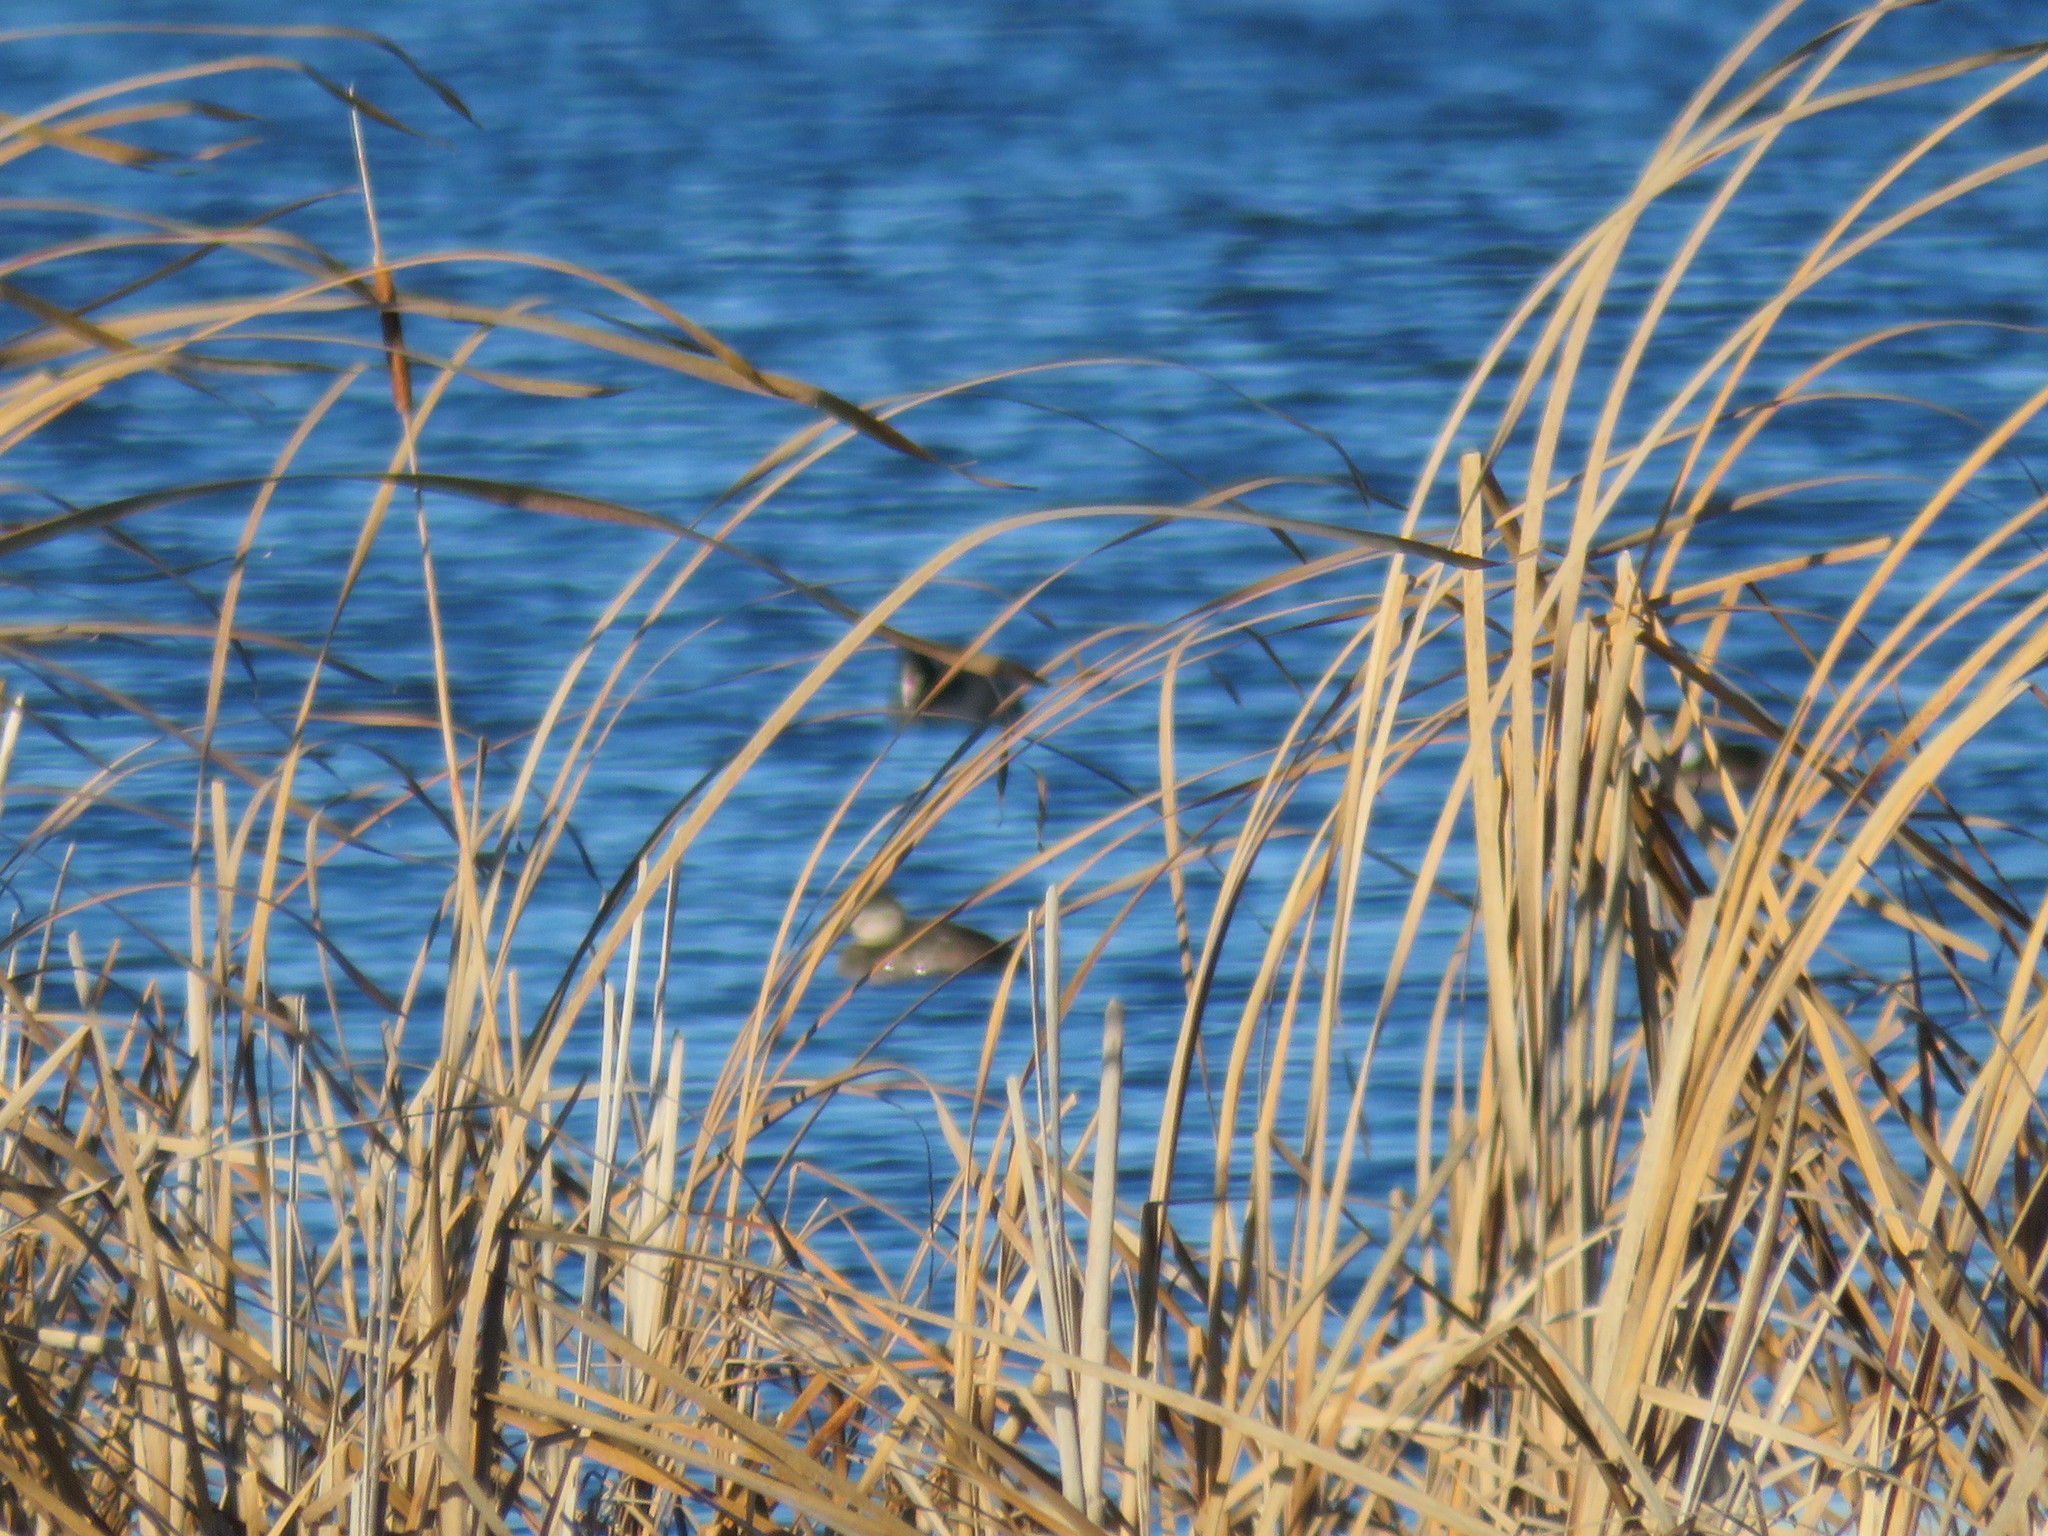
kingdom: Animalia
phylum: Chordata
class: Aves
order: Anseriformes
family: Anatidae
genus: Mareca
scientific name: Mareca strepera
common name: Gadwall
